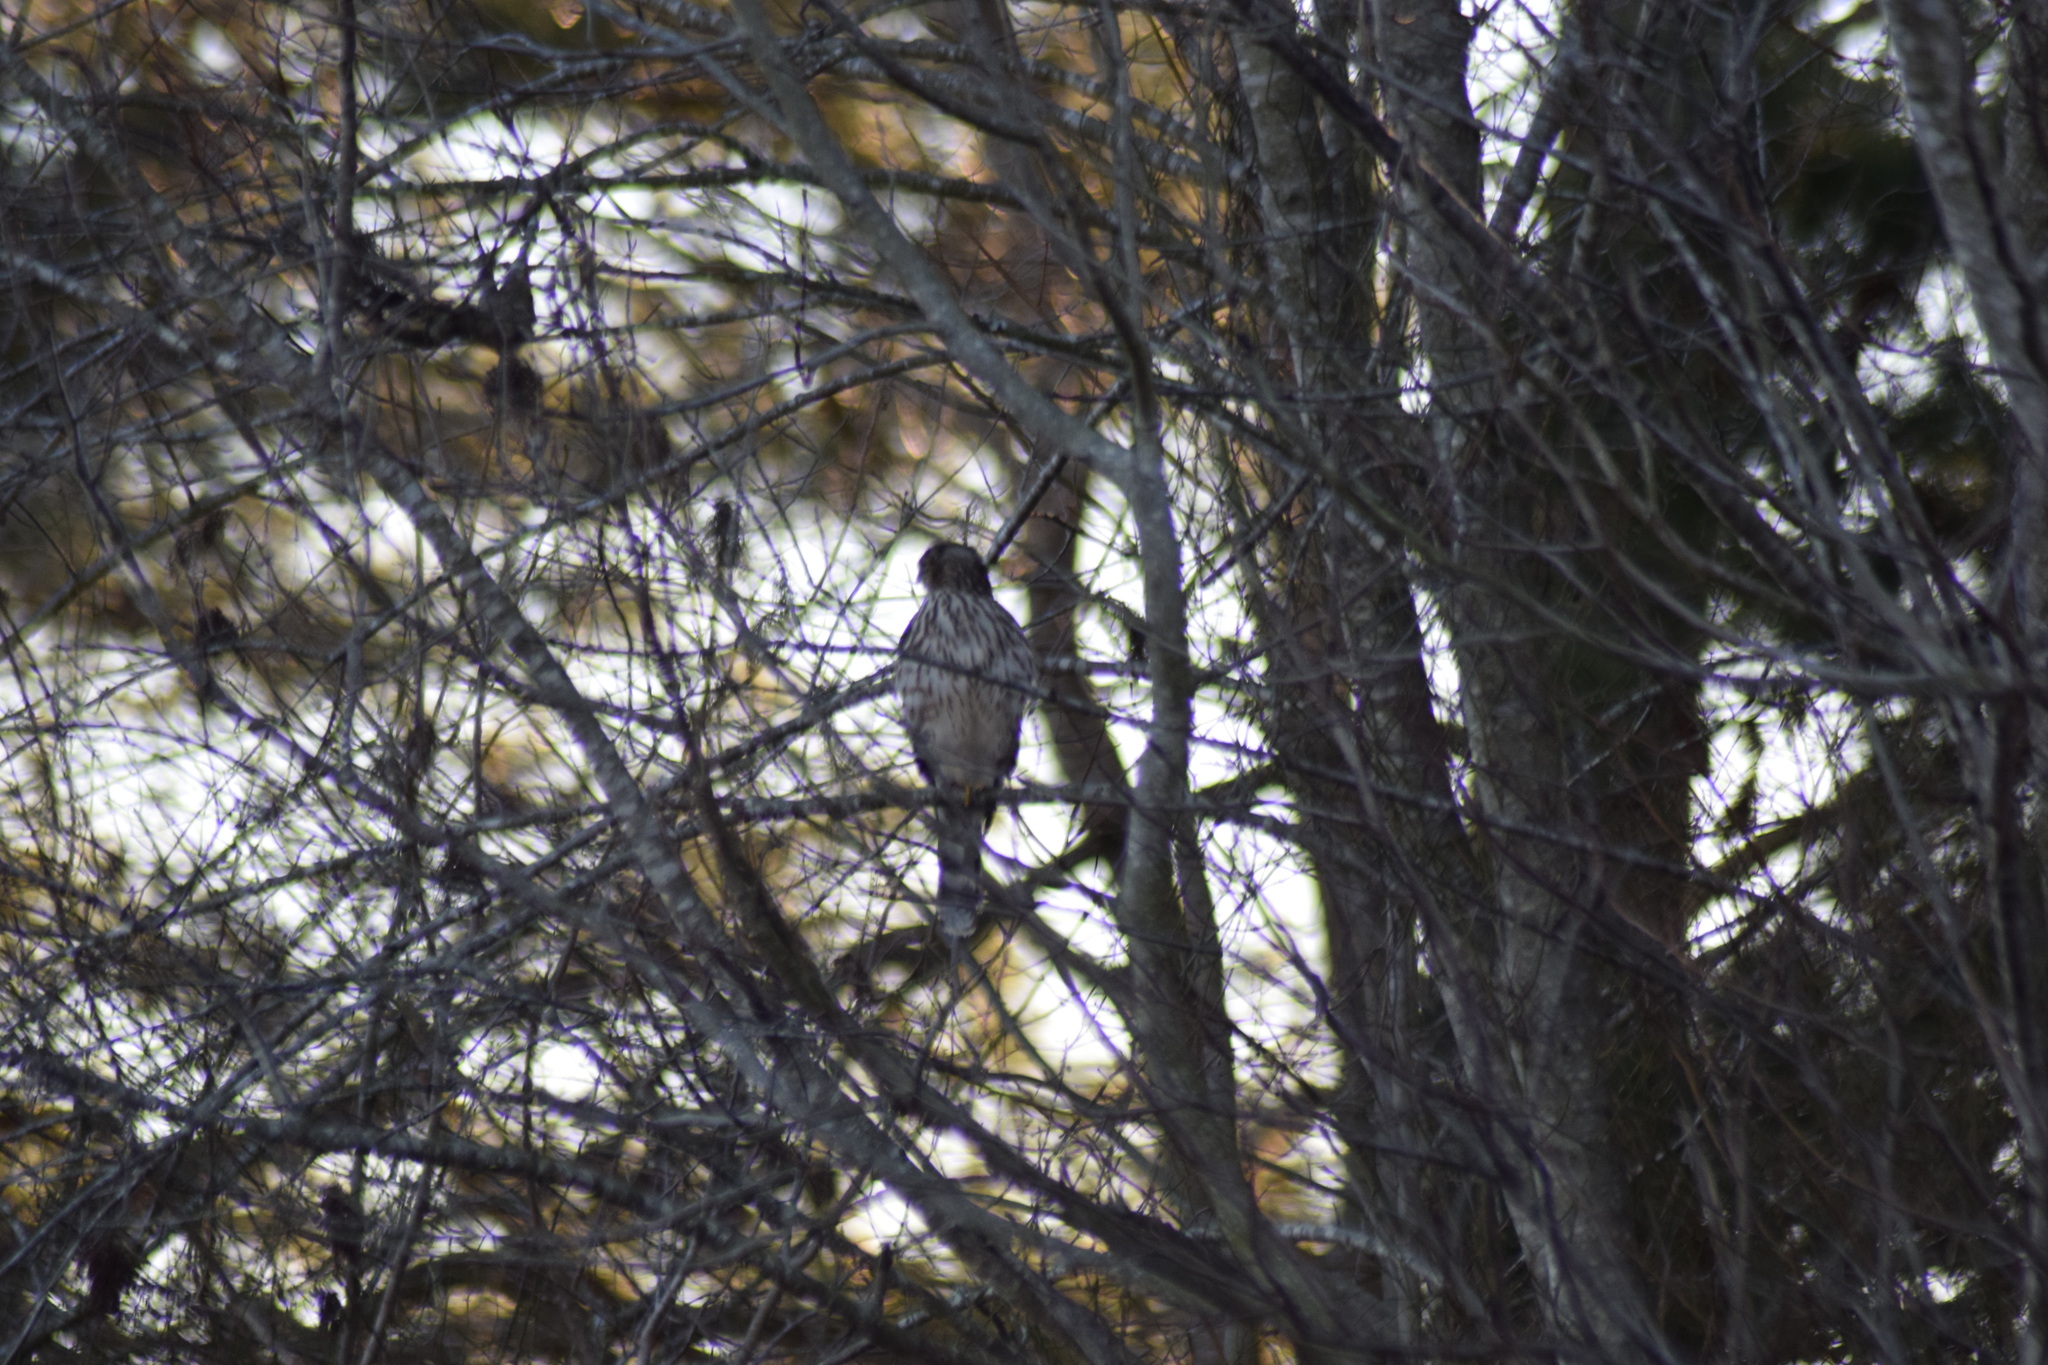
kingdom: Animalia
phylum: Chordata
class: Aves
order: Accipitriformes
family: Accipitridae
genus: Accipiter
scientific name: Accipiter cooperii
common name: Cooper's hawk
